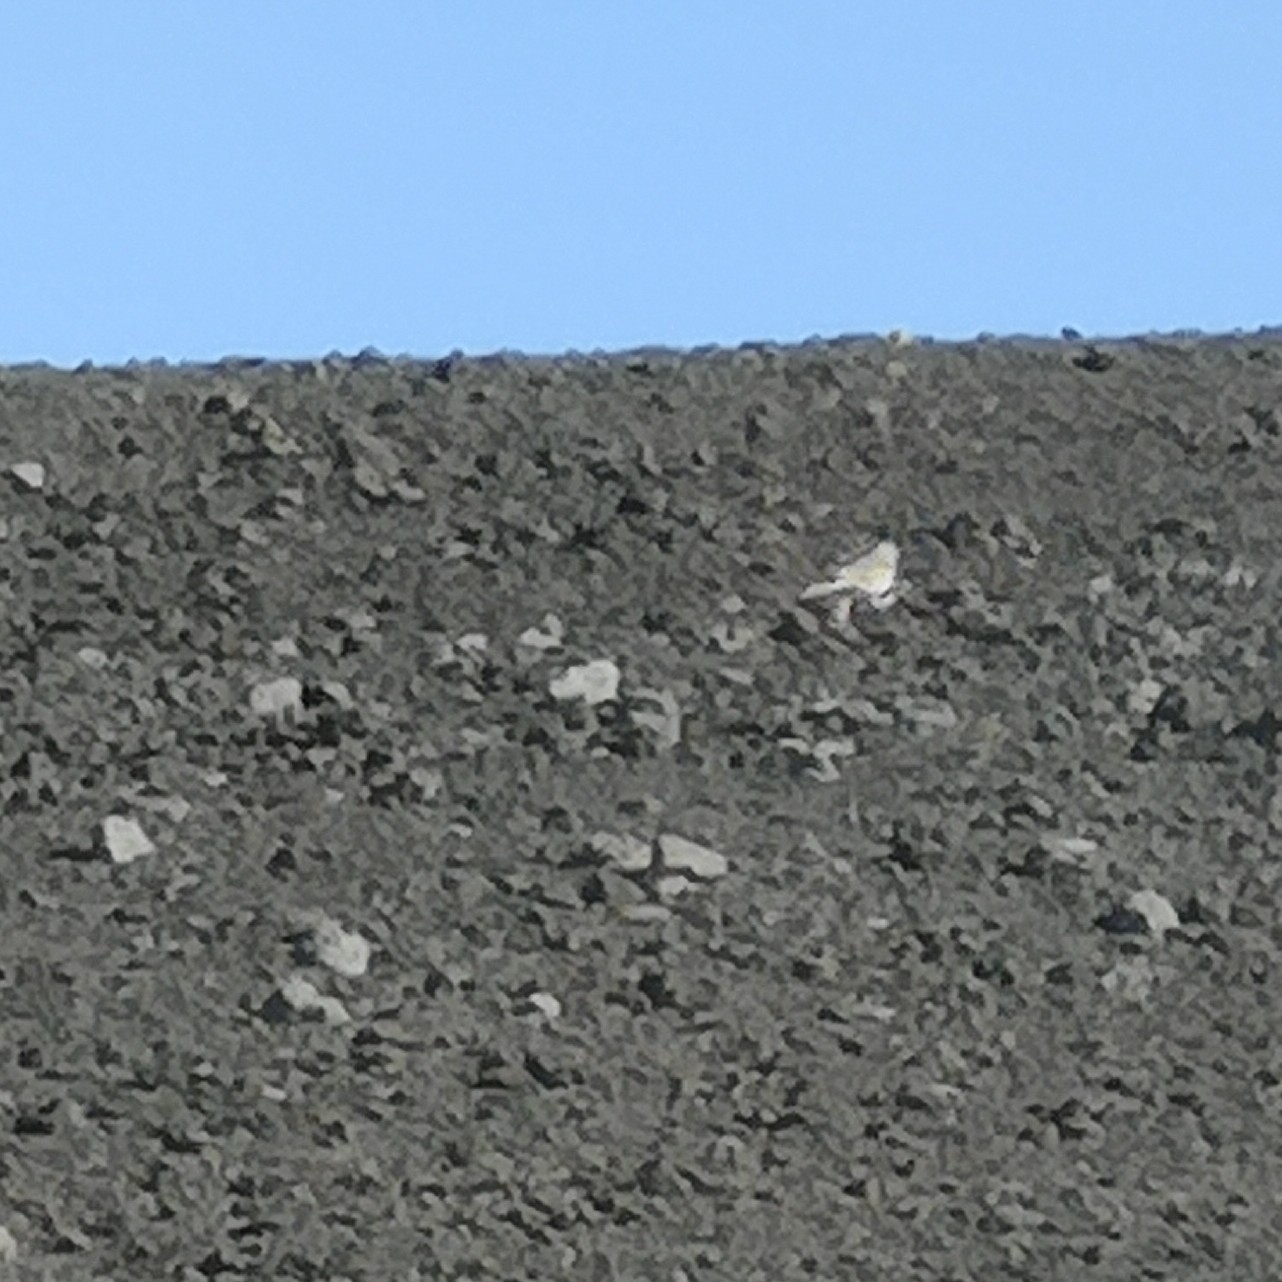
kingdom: Animalia
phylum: Chordata
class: Aves
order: Passeriformes
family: Motacillidae
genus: Anthus
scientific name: Anthus berthelotii
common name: Berthelot's pipit
